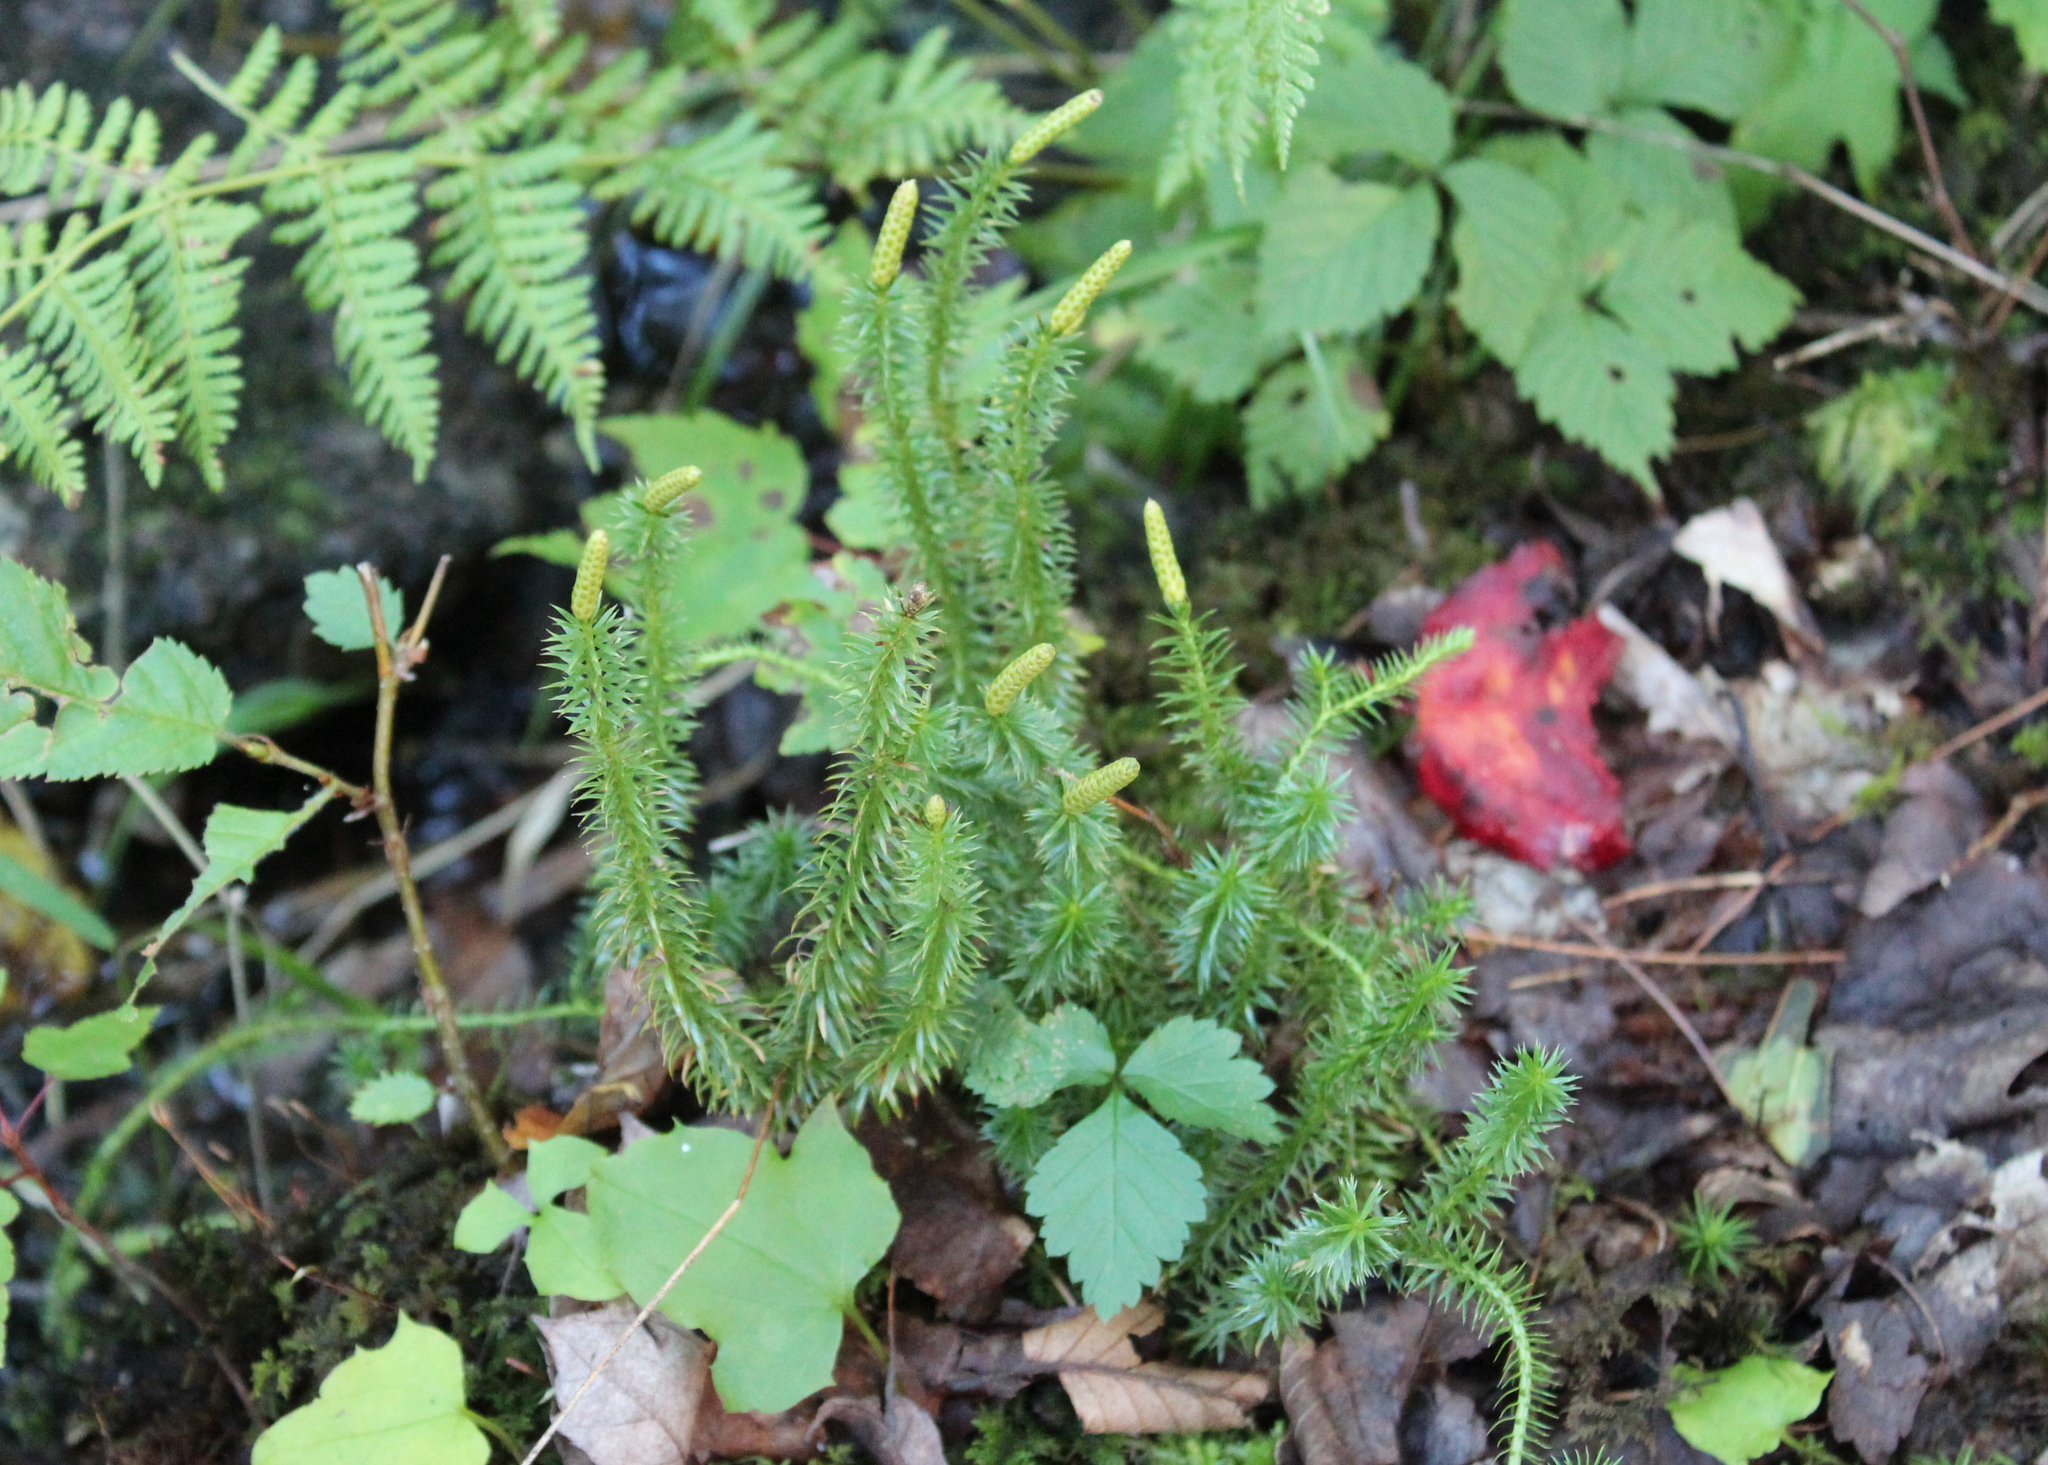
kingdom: Plantae
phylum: Tracheophyta
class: Lycopodiopsida
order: Lycopodiales
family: Lycopodiaceae
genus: Spinulum
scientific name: Spinulum annotinum
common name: Interrupted club-moss
